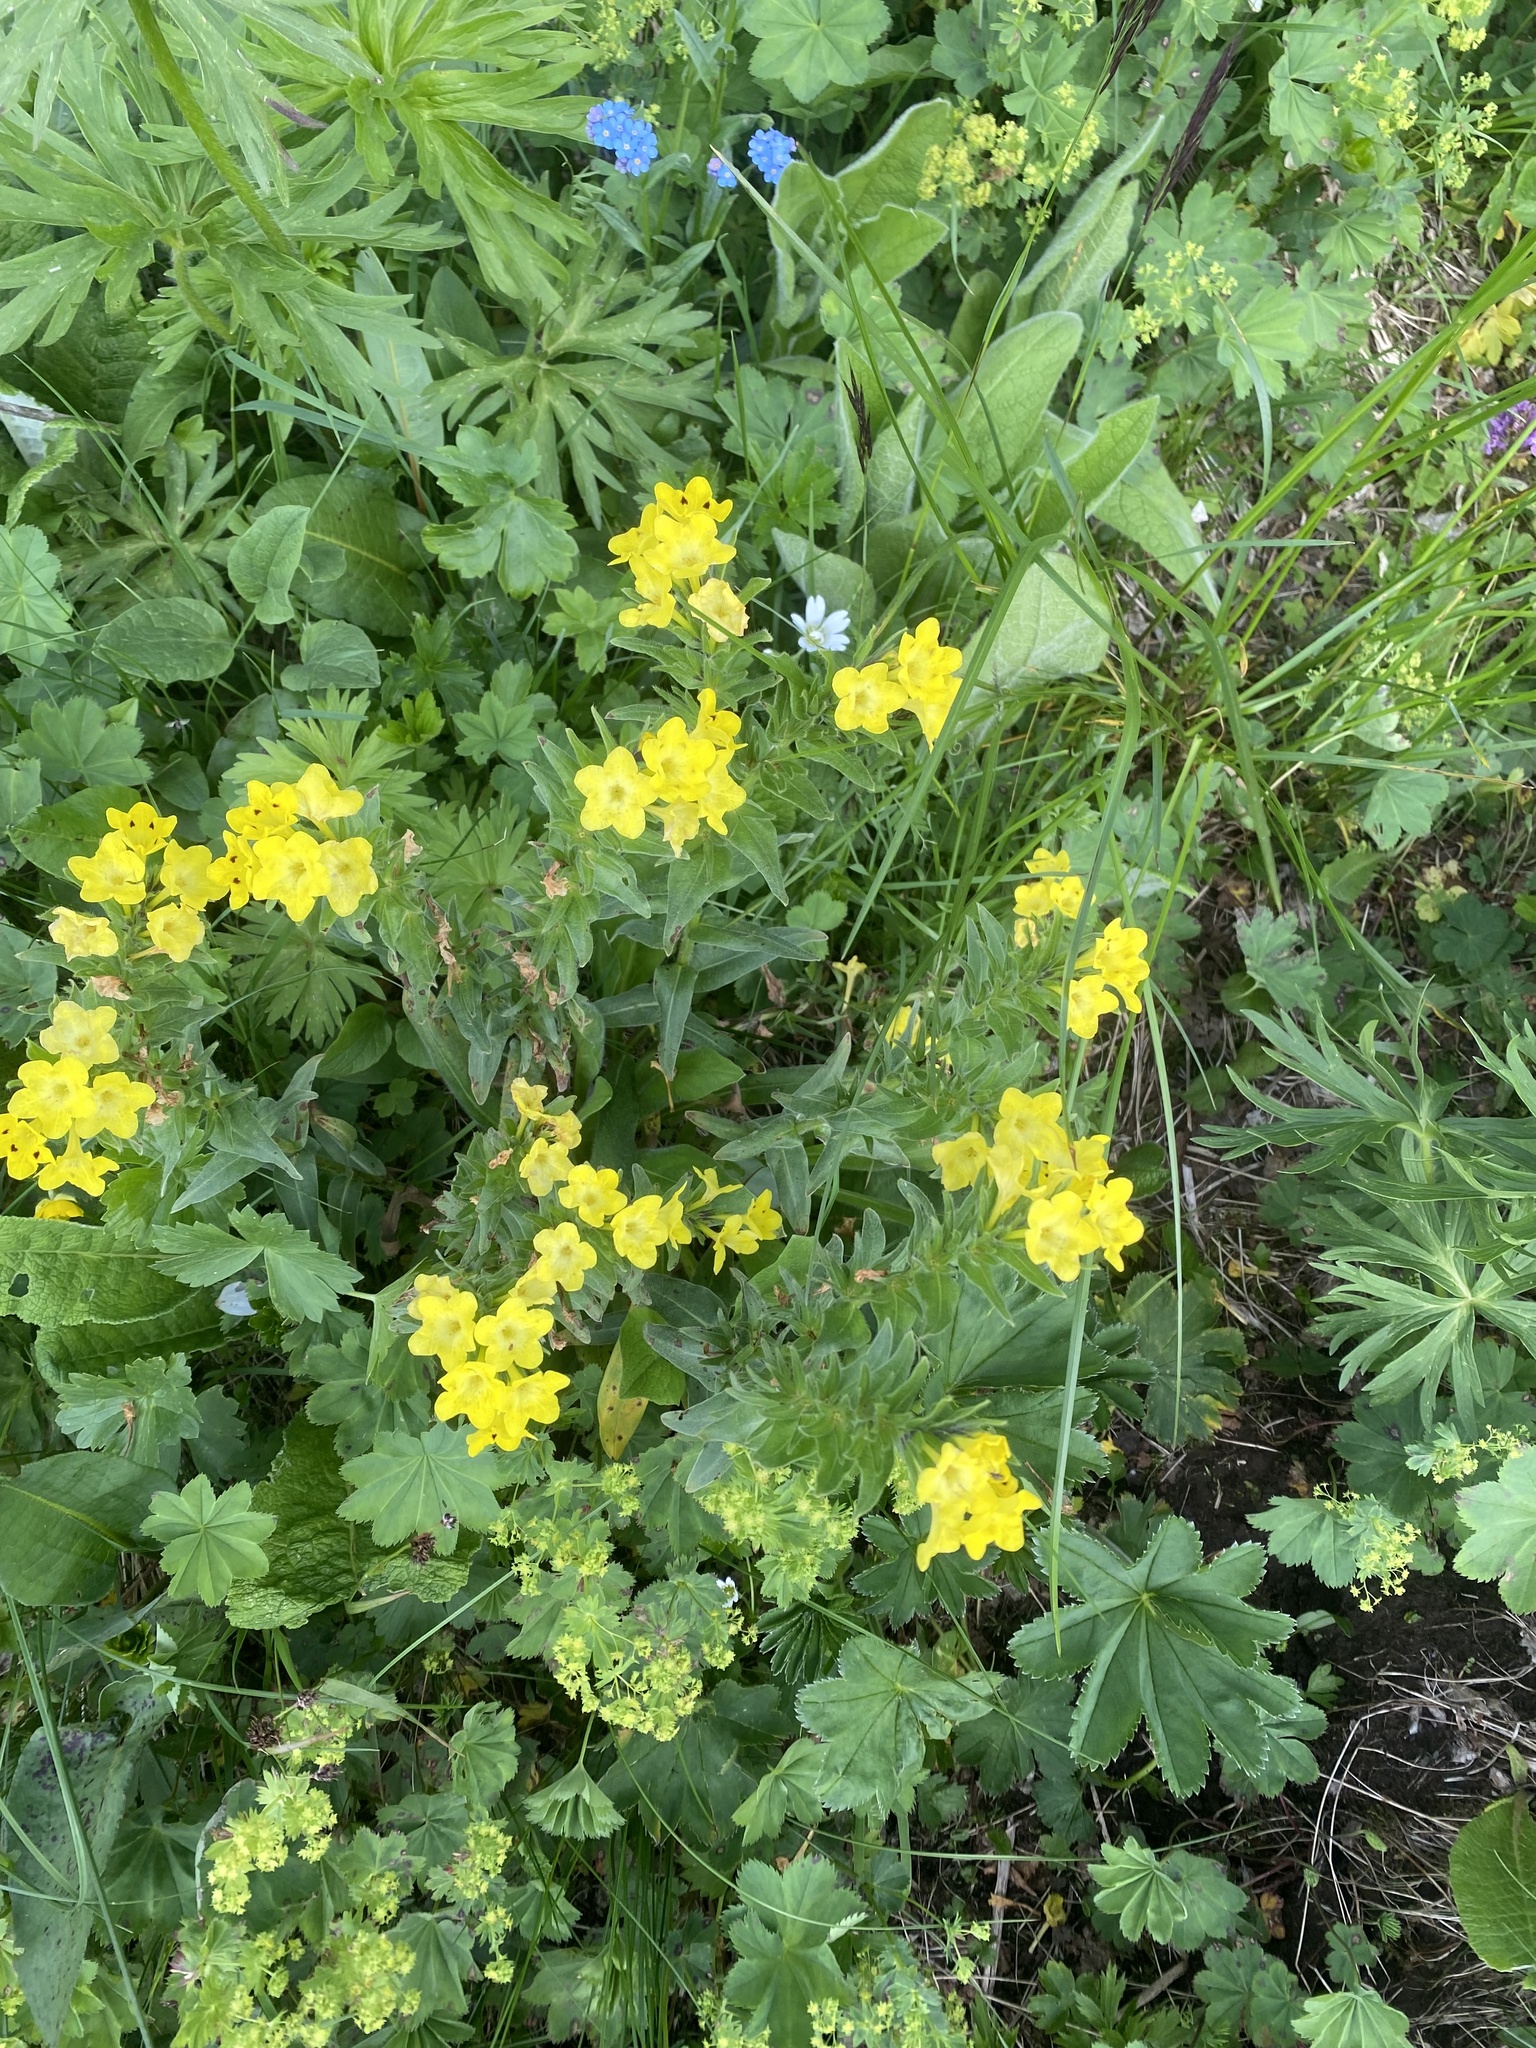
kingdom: Plantae
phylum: Tracheophyta
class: Magnoliopsida
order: Boraginales
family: Boraginaceae
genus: Huynhia
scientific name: Huynhia pulchra
